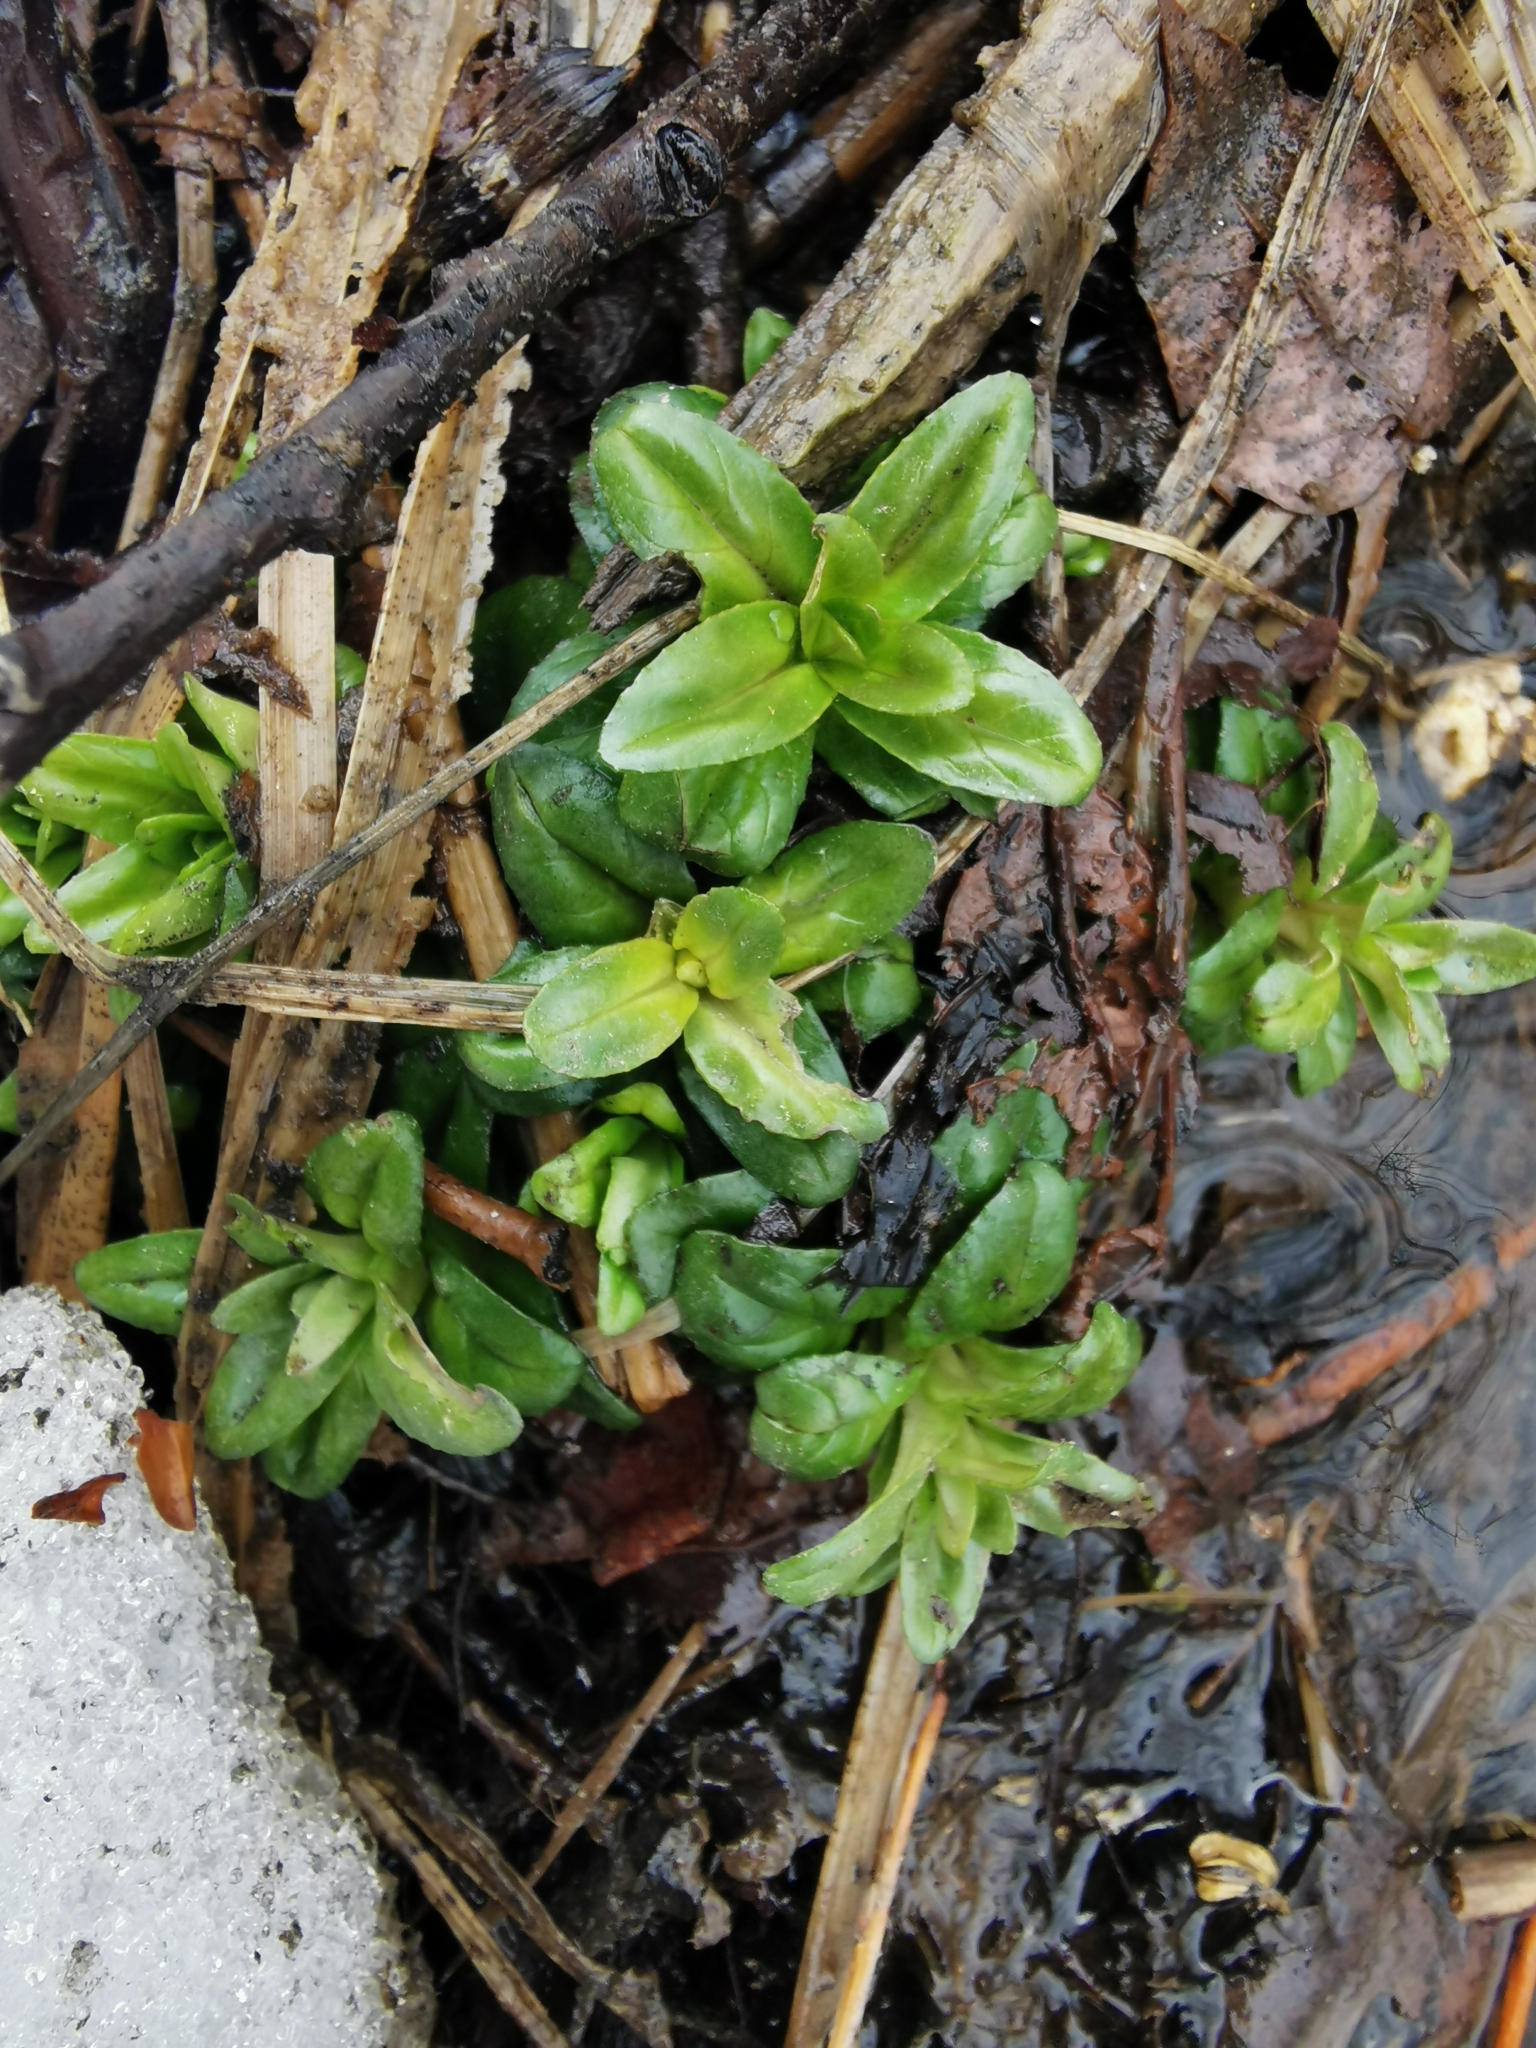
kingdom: Plantae
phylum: Tracheophyta
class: Magnoliopsida
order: Myrtales
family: Onagraceae
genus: Epilobium
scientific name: Epilobium ciliatum
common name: American willowherb
